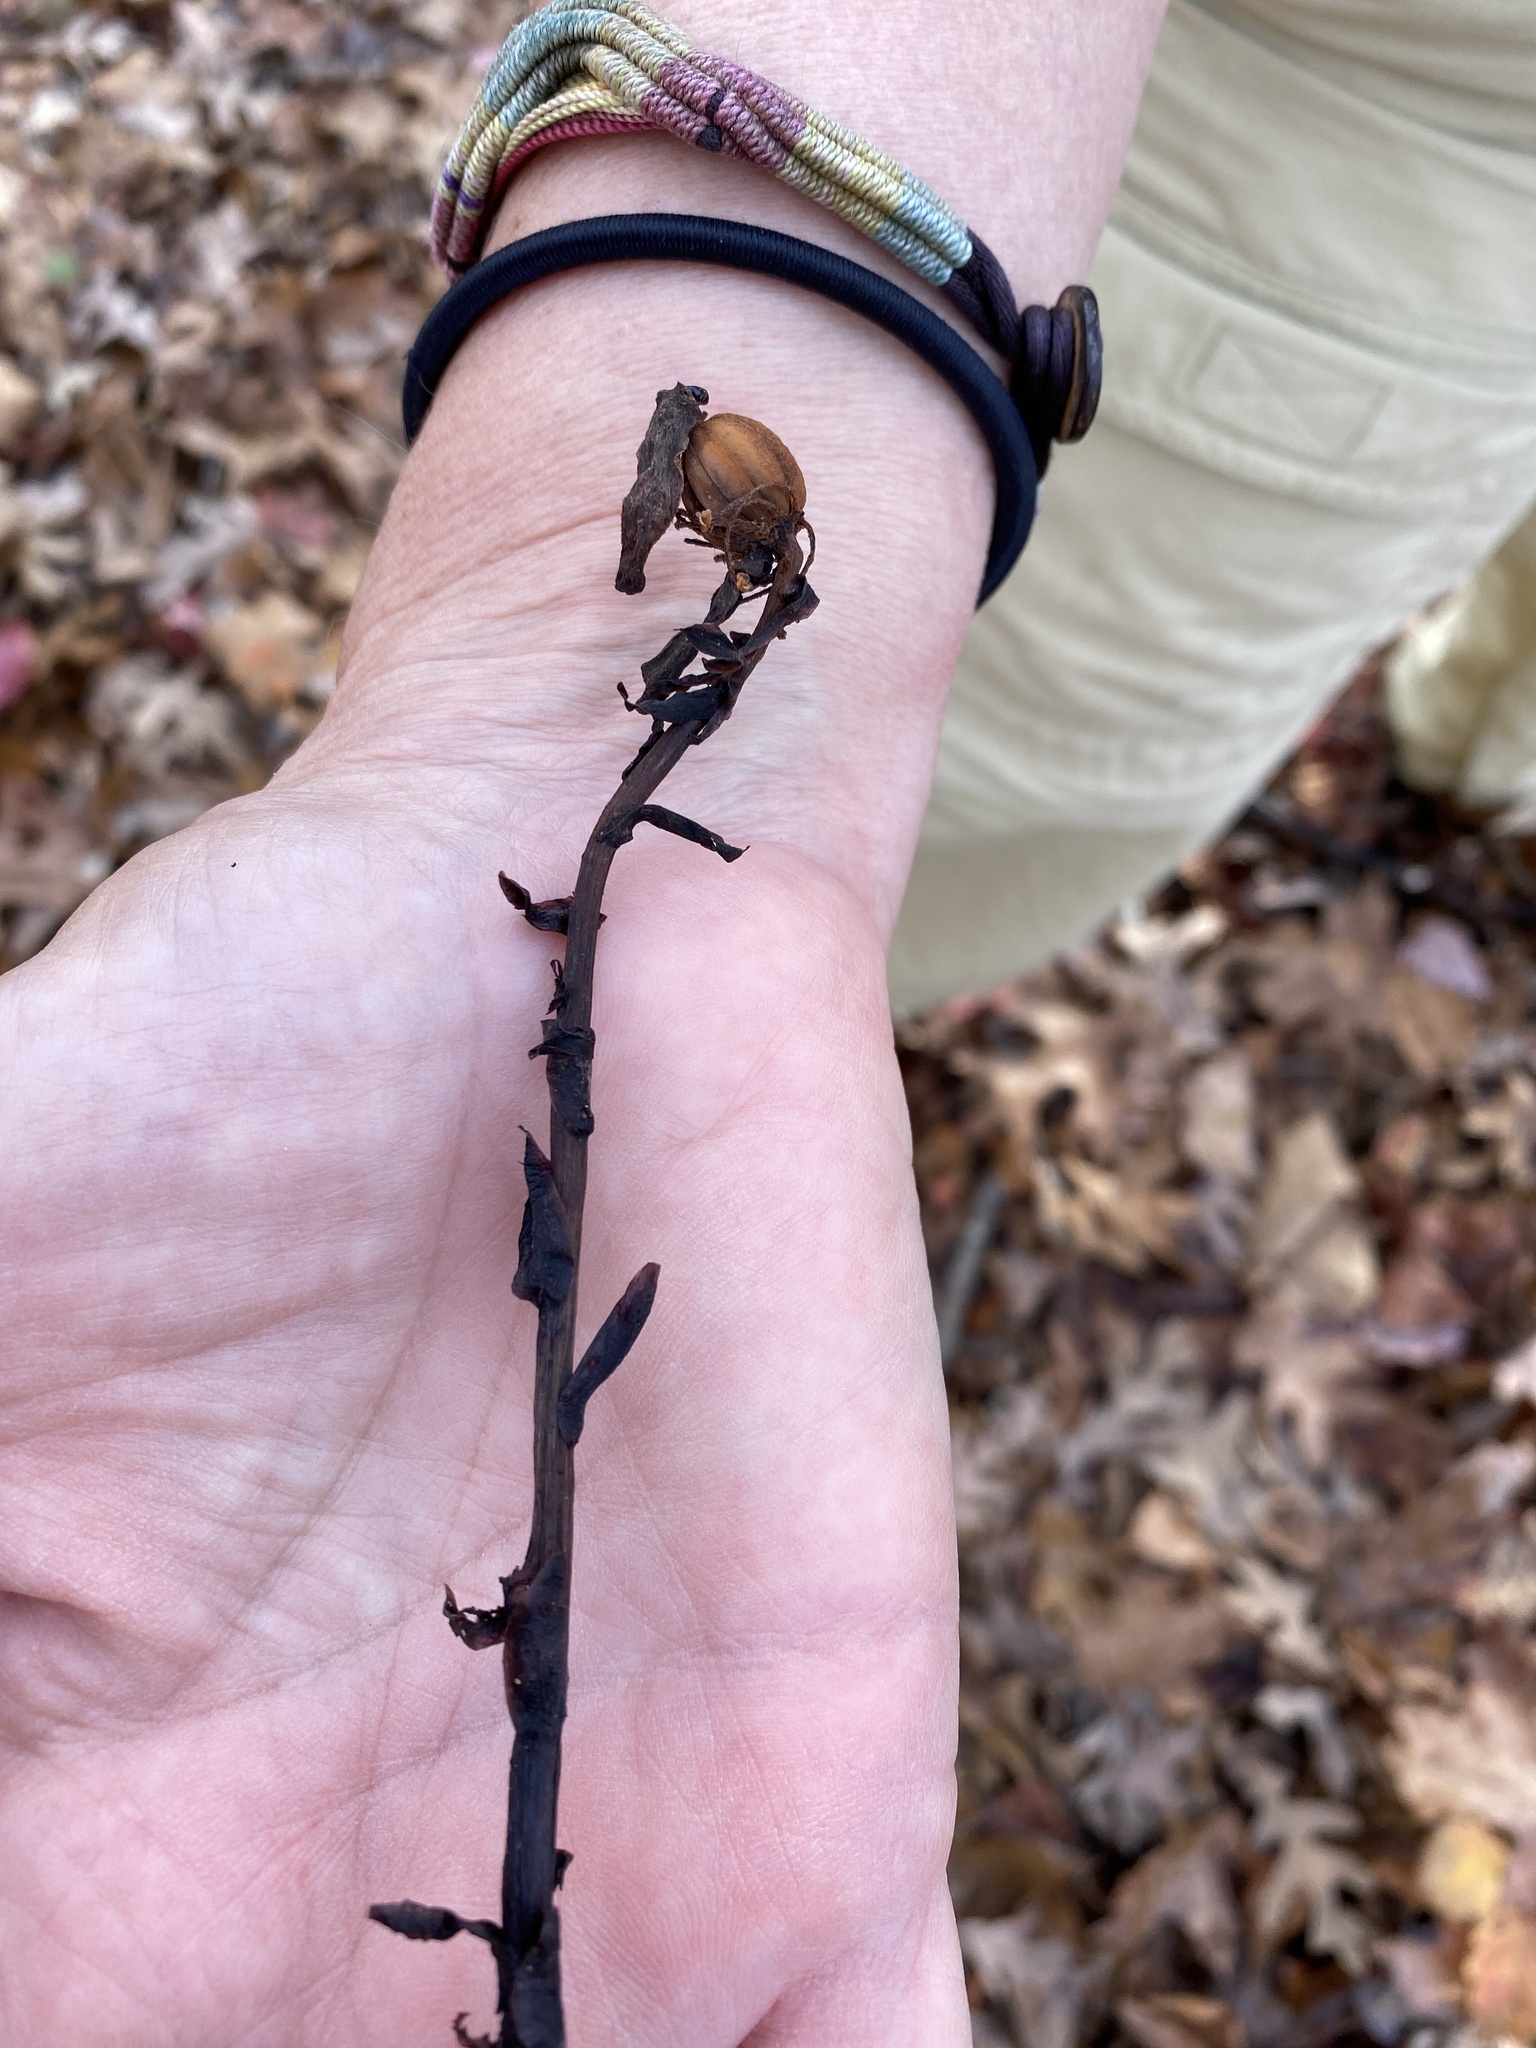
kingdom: Plantae
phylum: Tracheophyta
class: Magnoliopsida
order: Ericales
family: Ericaceae
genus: Monotropa
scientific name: Monotropa uniflora
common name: Convulsion root
